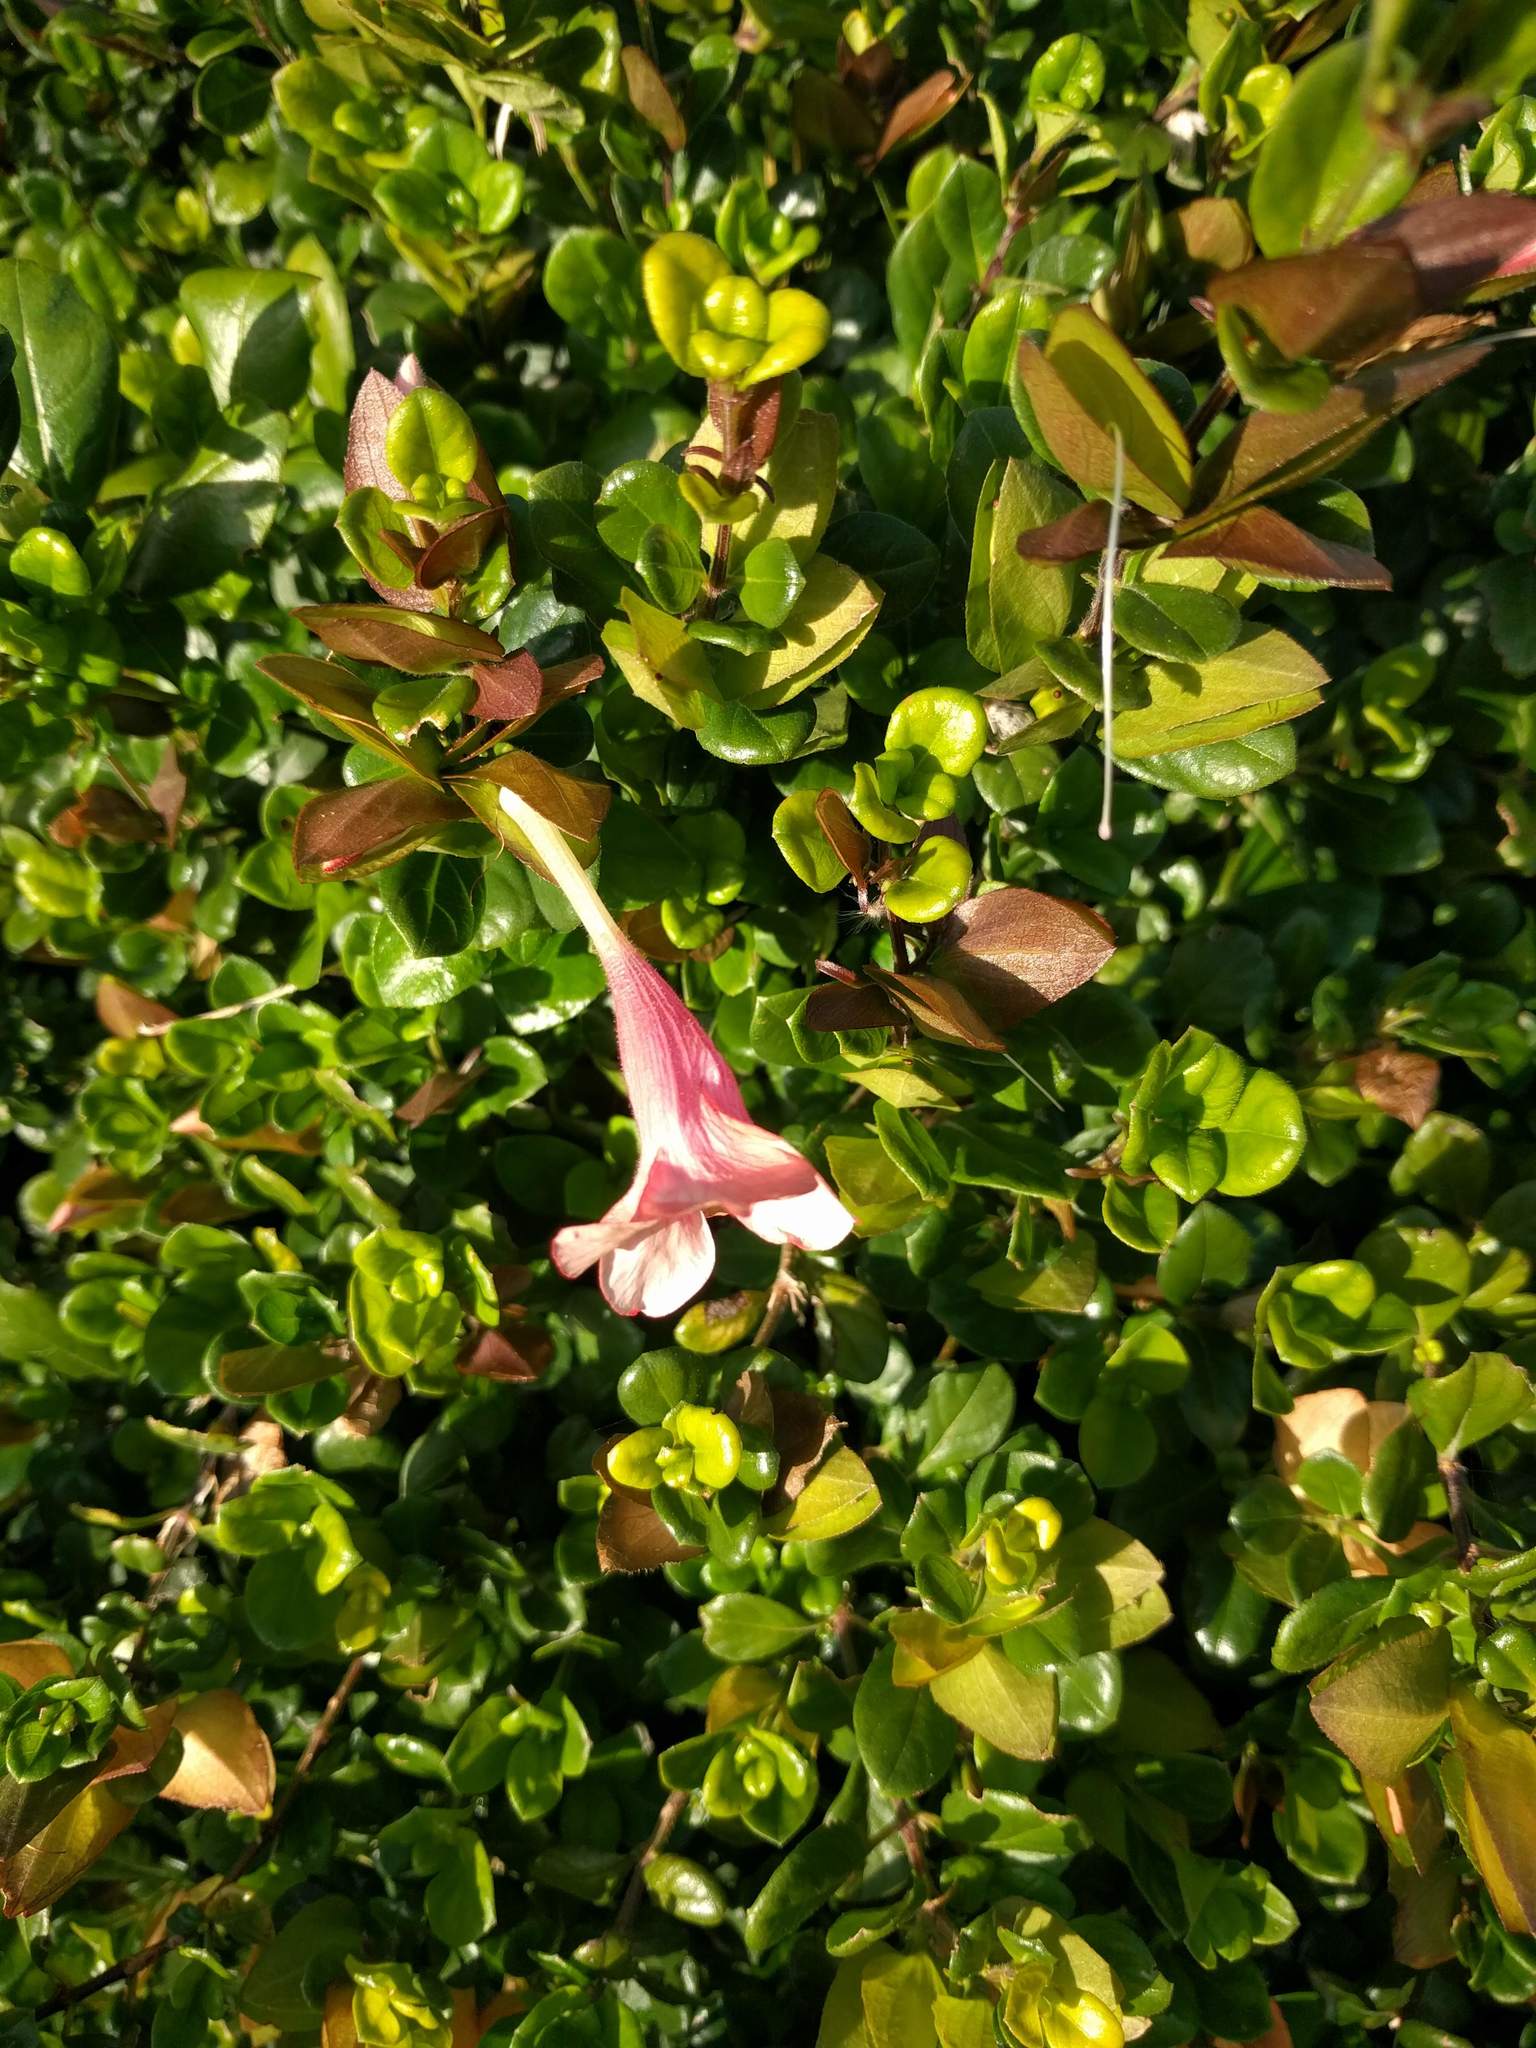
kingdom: Plantae
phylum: Tracheophyta
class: Magnoliopsida
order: Lamiales
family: Acanthaceae
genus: Barleria
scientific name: Barleria repens
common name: Pink-ruellia
